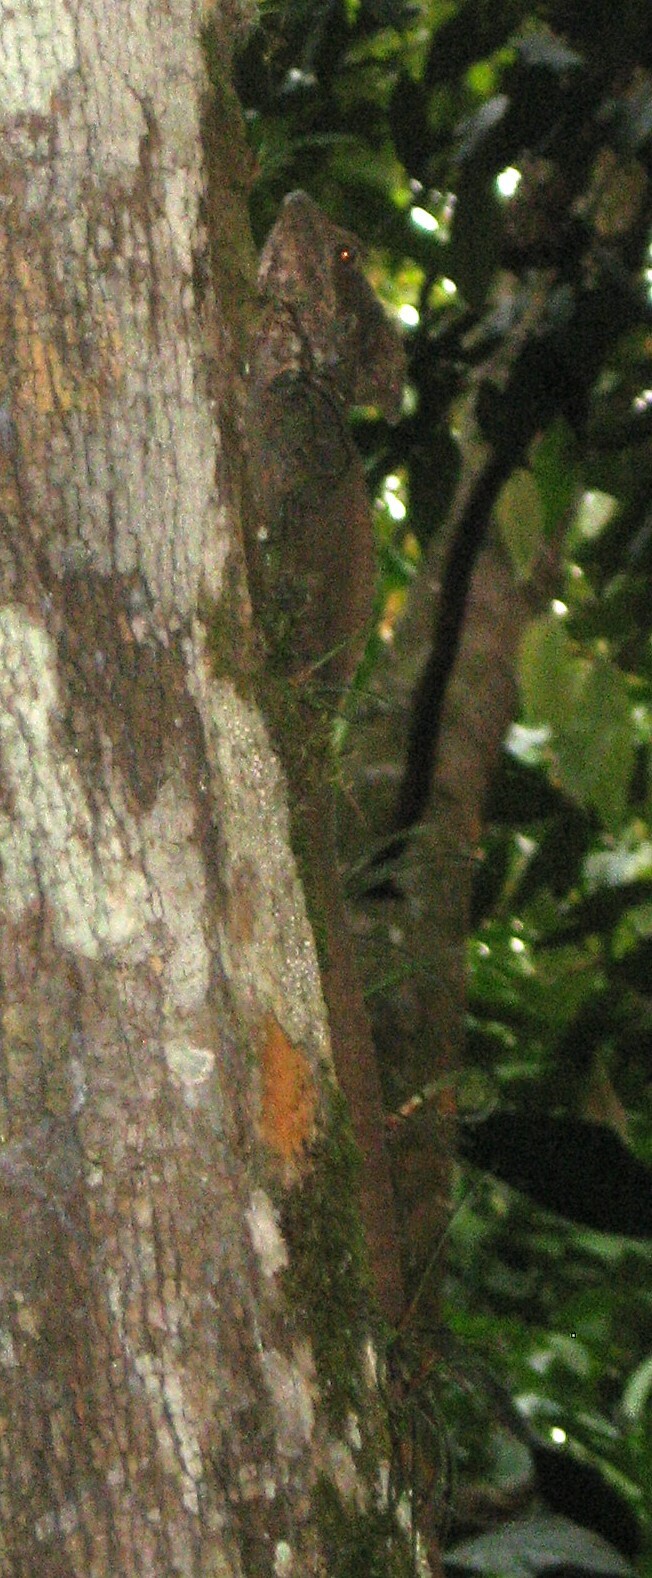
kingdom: Animalia
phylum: Chordata
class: Squamata
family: Corytophanidae
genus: Basiliscus
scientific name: Basiliscus vittatus
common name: Brown basilisk
